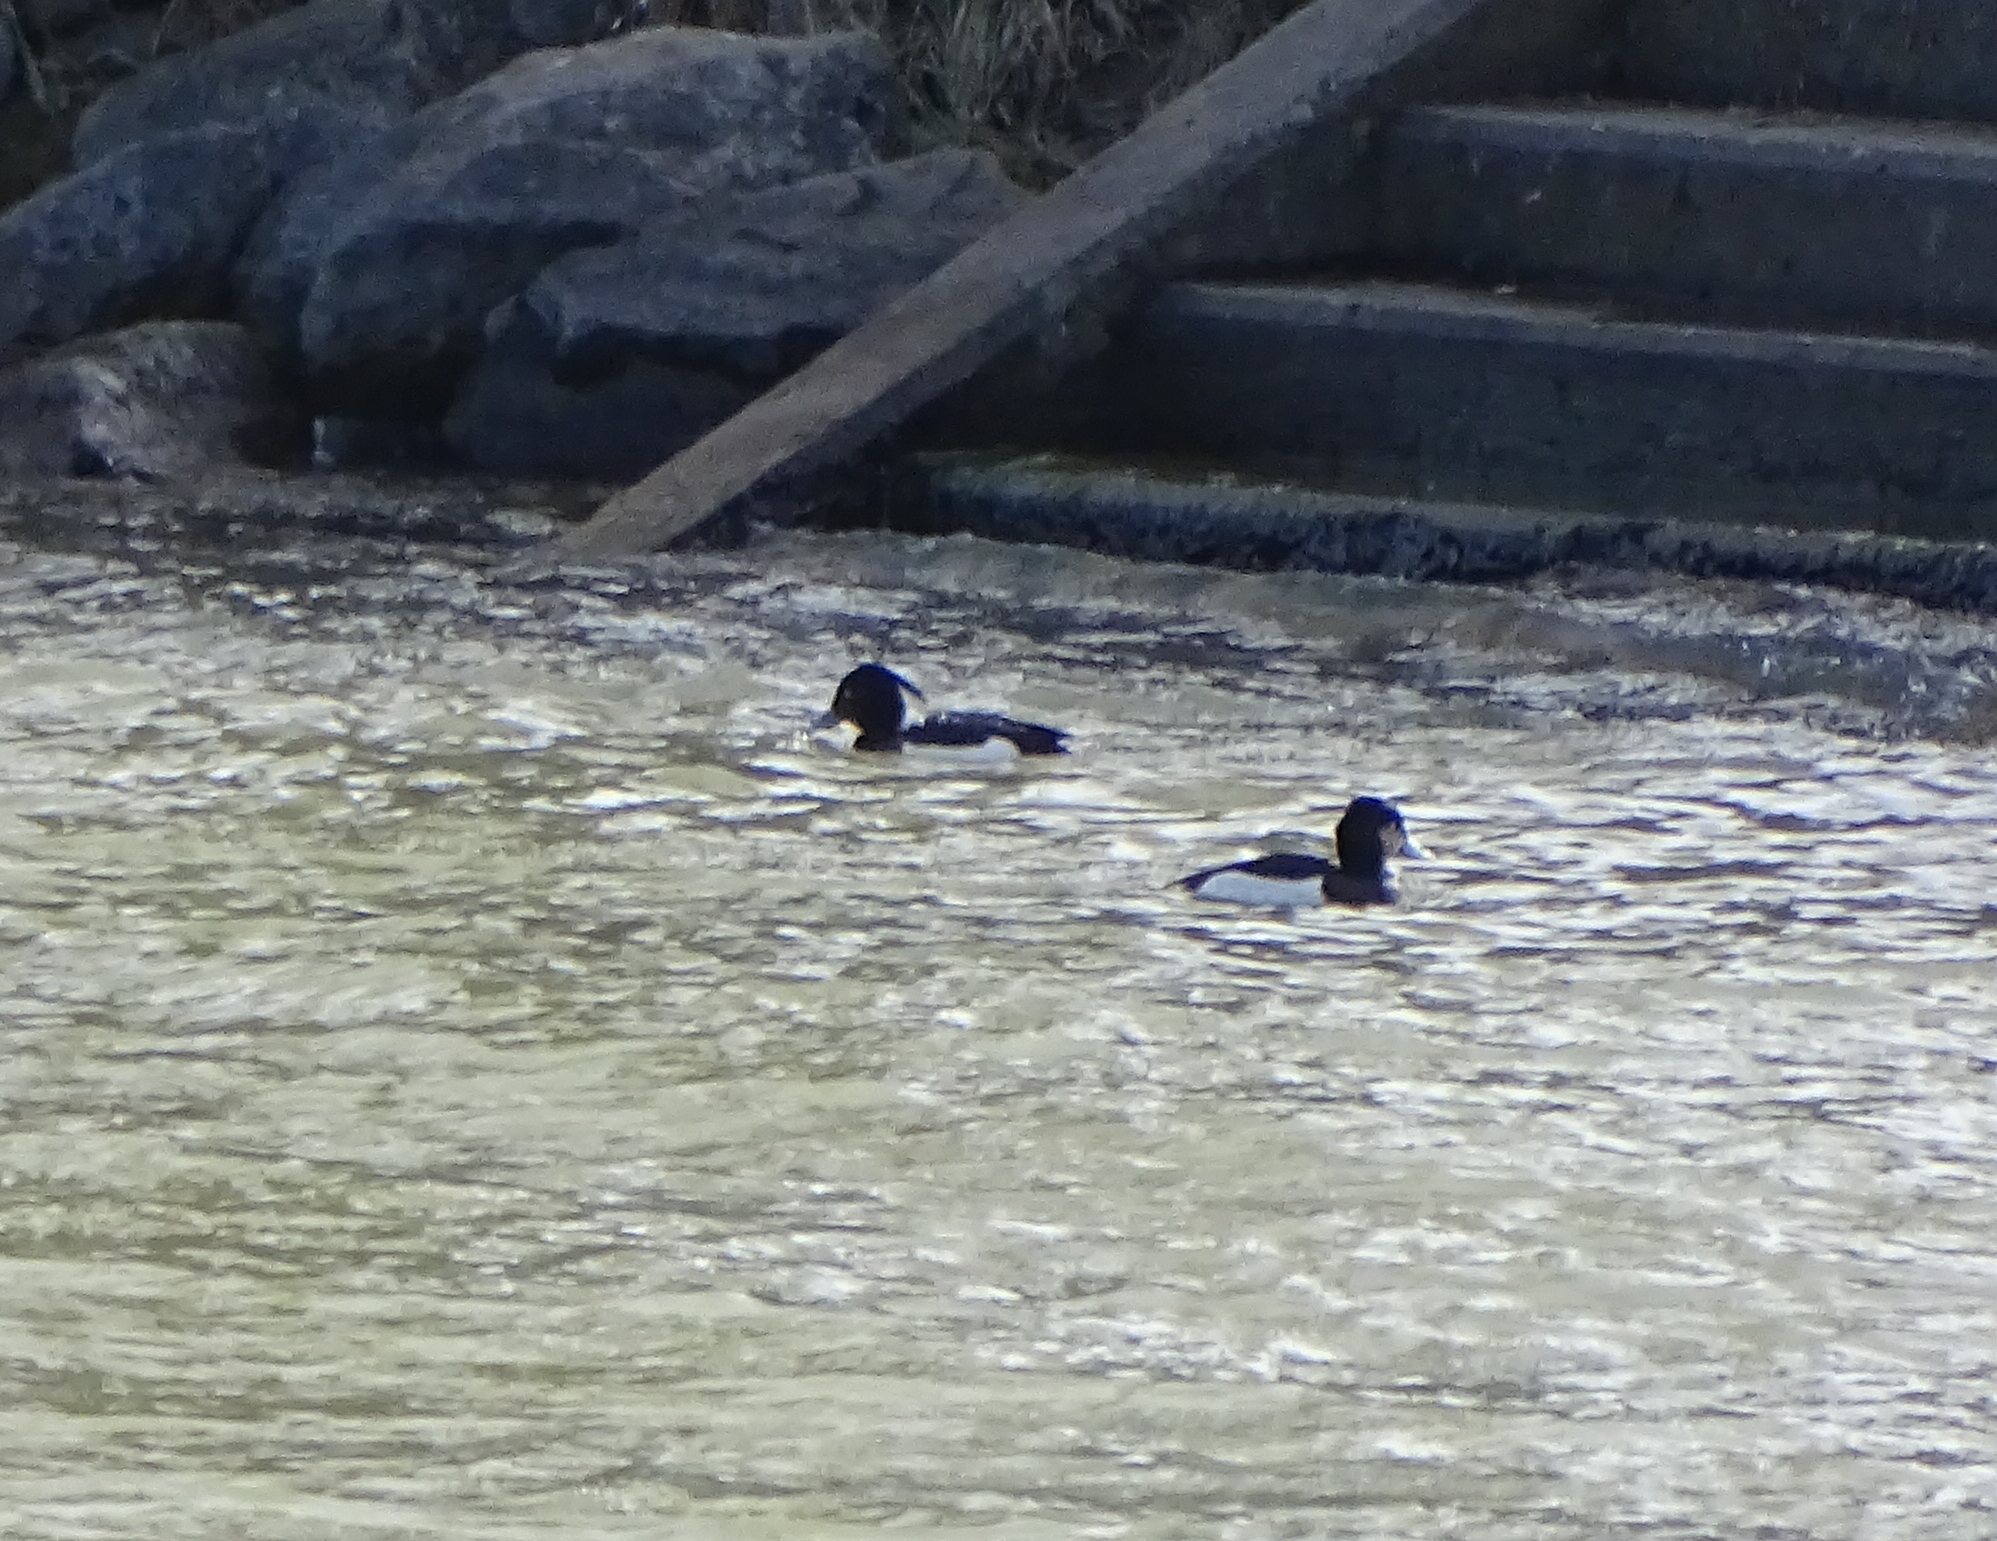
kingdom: Animalia
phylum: Chordata
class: Aves
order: Anseriformes
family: Anatidae
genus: Aythya
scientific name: Aythya fuligula
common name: Tufted duck
